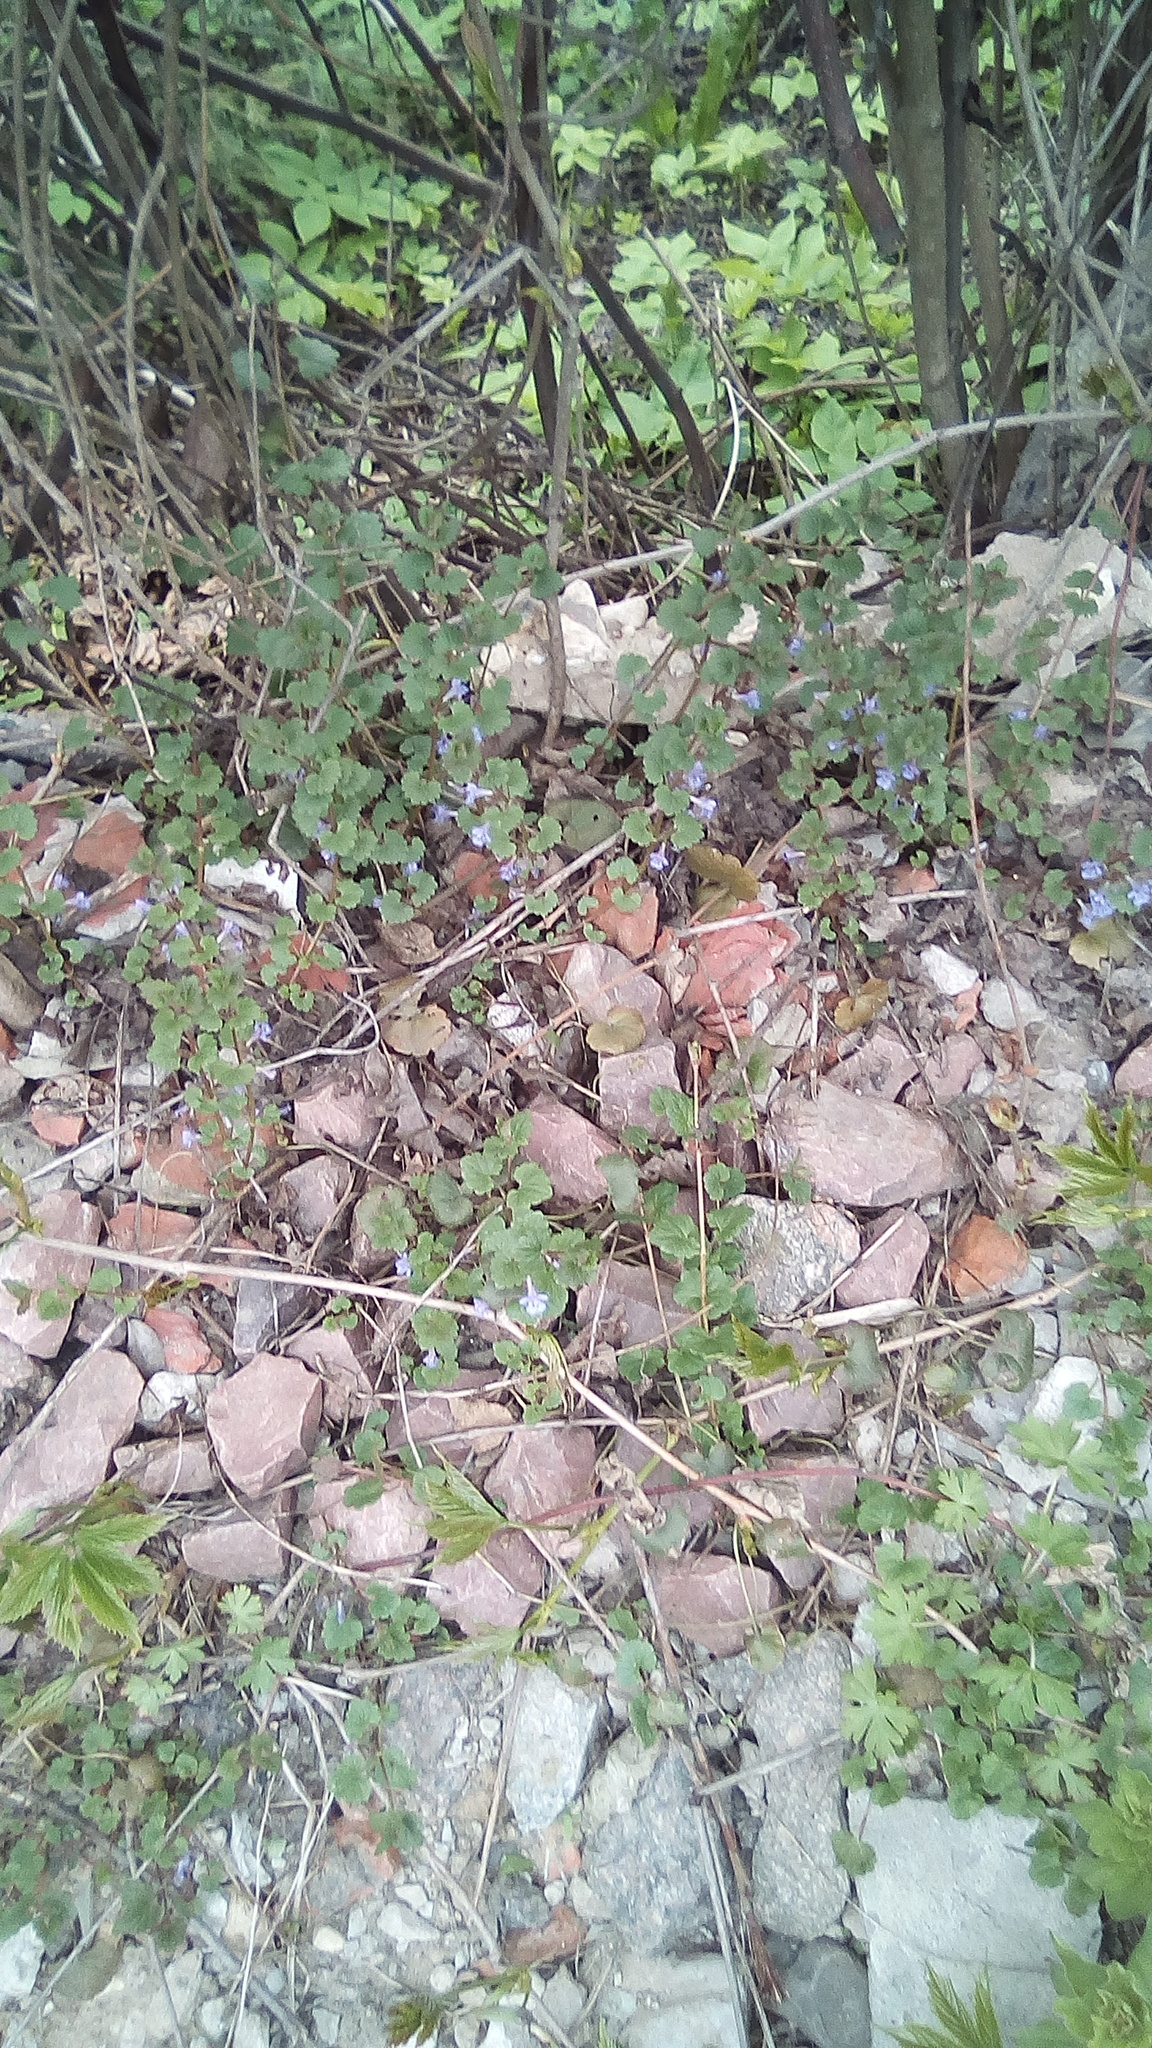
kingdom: Plantae
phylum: Tracheophyta
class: Magnoliopsida
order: Lamiales
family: Lamiaceae
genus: Glechoma
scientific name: Glechoma hederacea
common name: Ground ivy
